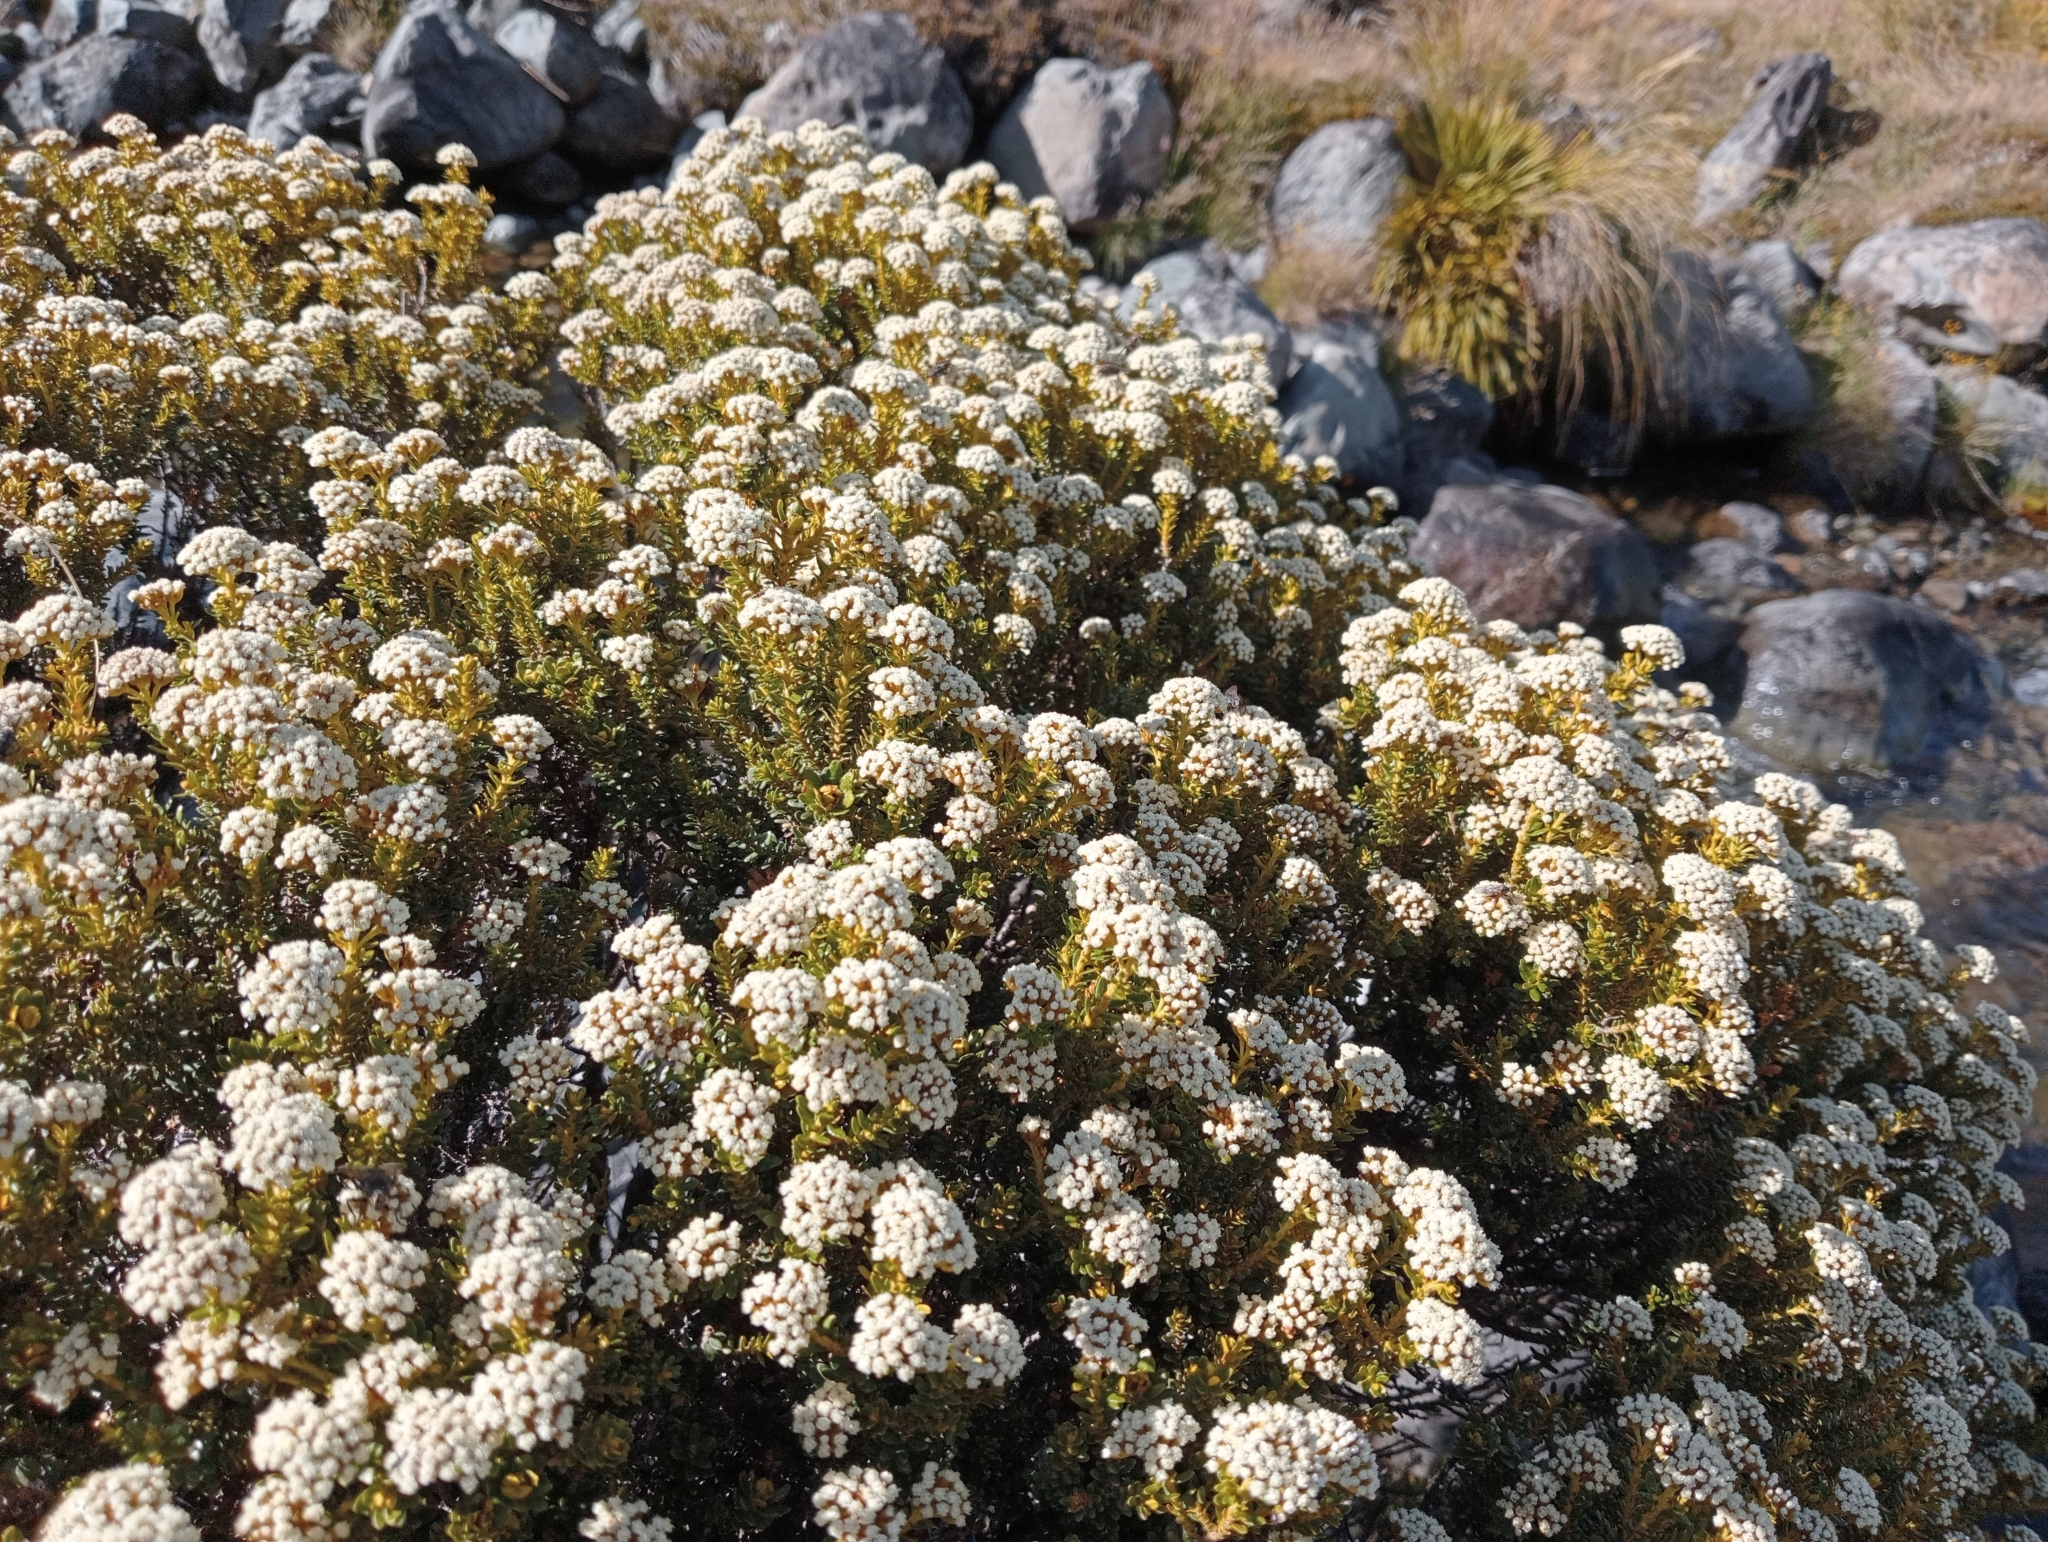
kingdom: Plantae
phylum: Tracheophyta
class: Magnoliopsida
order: Asterales
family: Asteraceae
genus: Ozothamnus
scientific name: Ozothamnus leptophyllus
